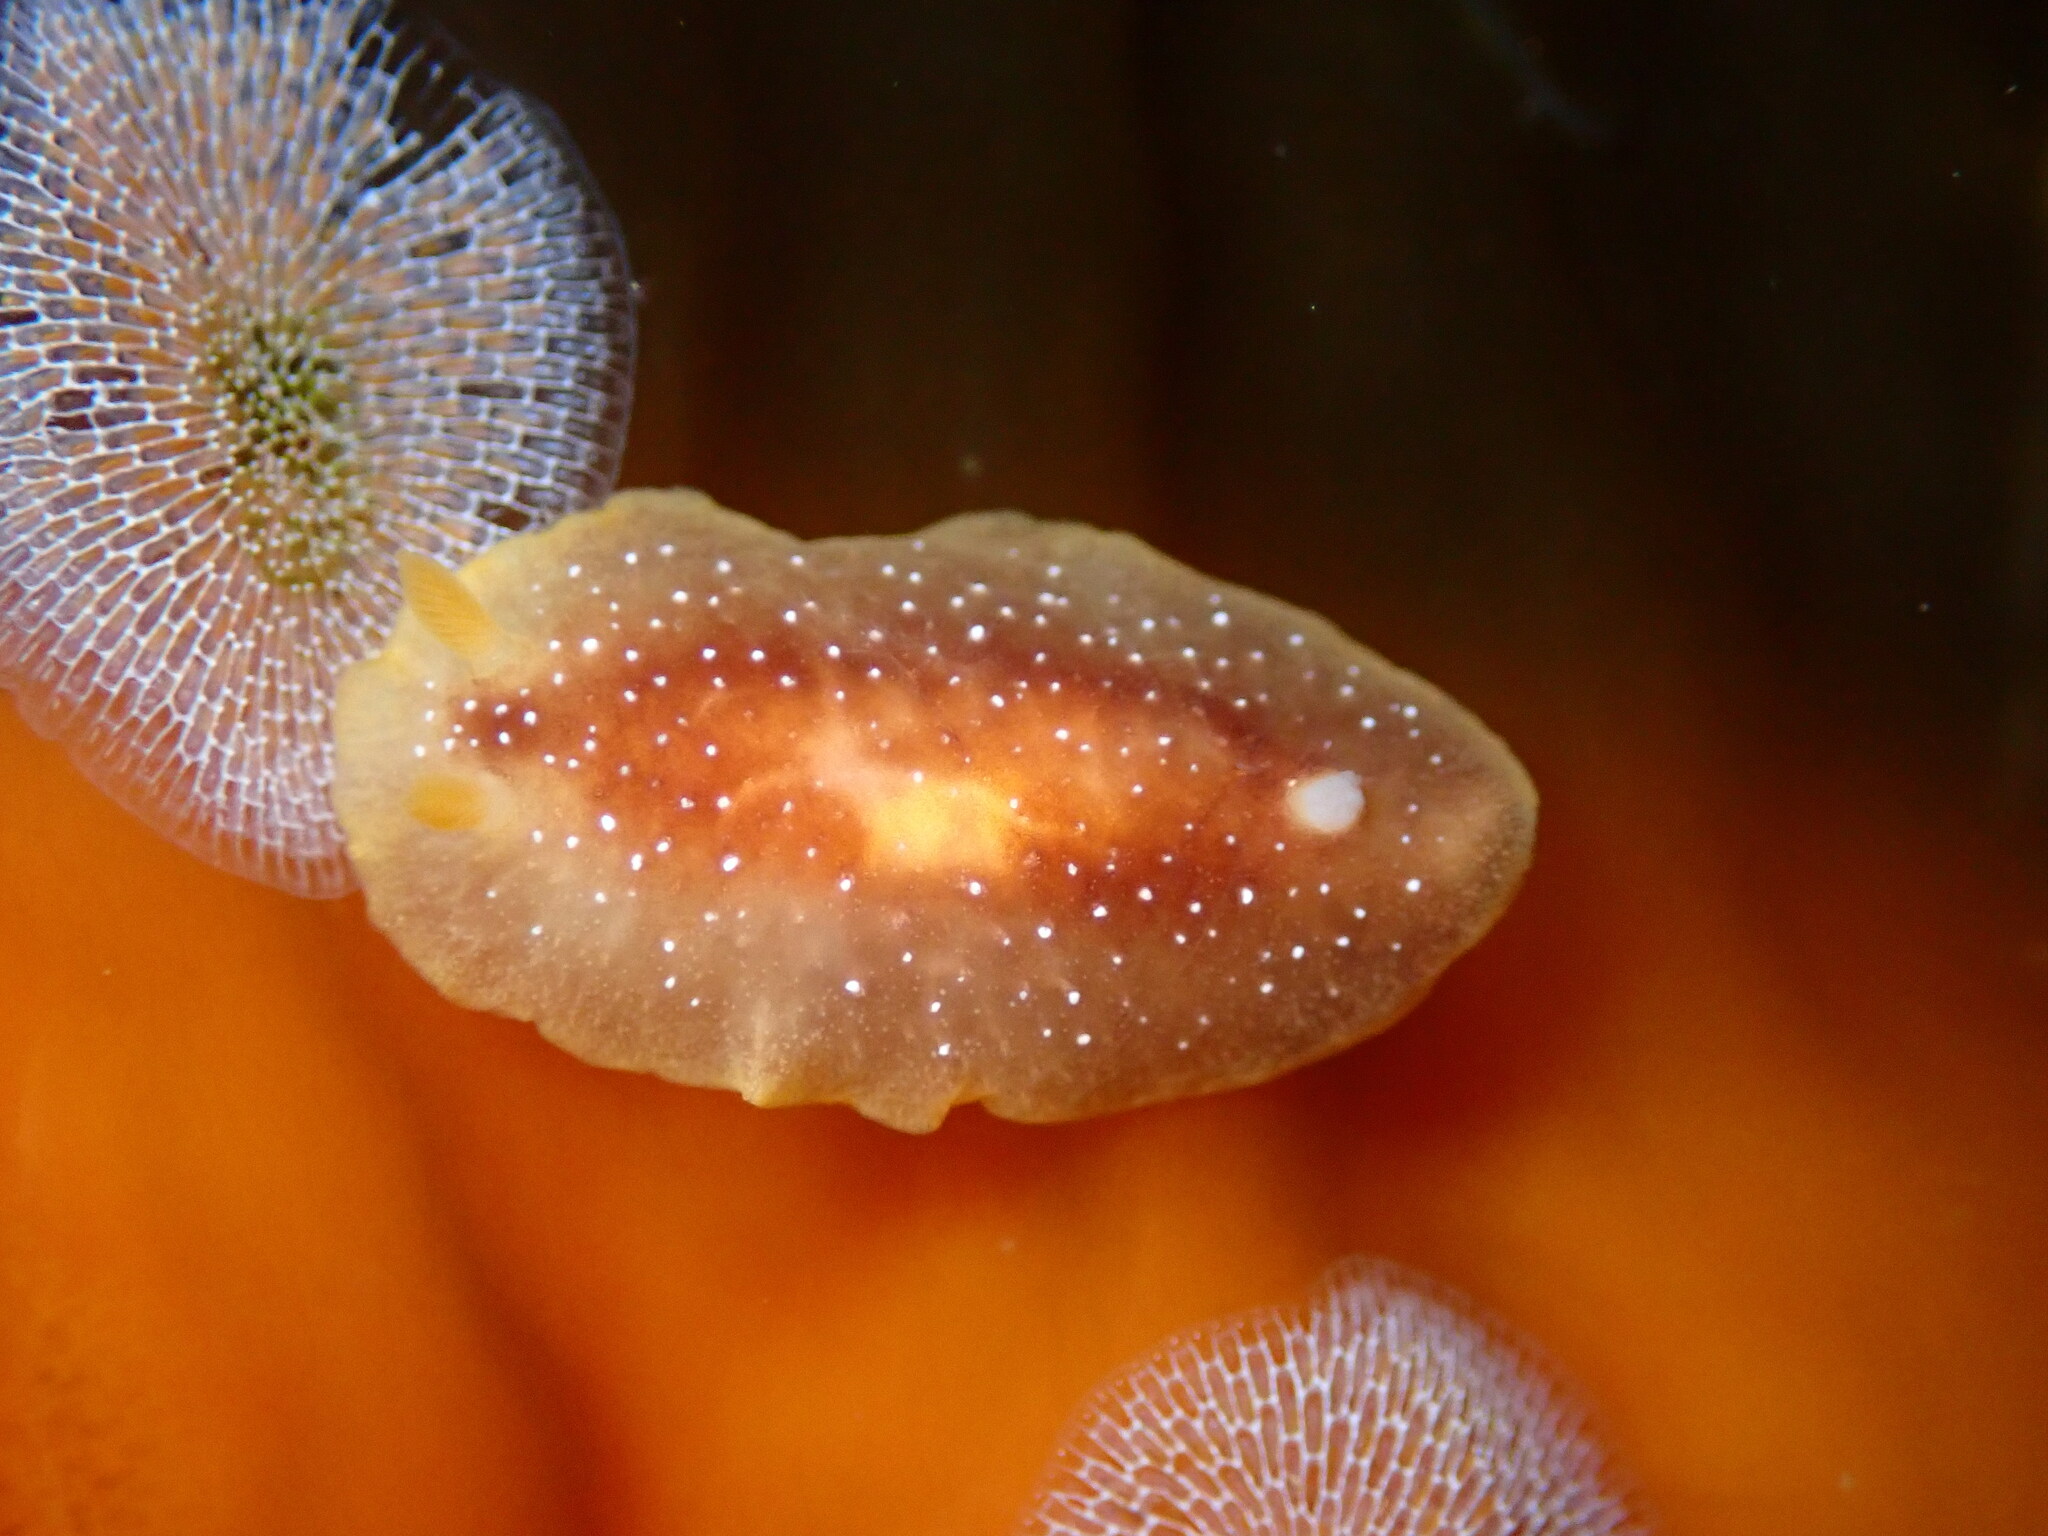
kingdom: Animalia
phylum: Mollusca
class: Gastropoda
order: Nudibranchia
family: Dendrodorididae
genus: Doriopsilla
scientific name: Doriopsilla fulva
